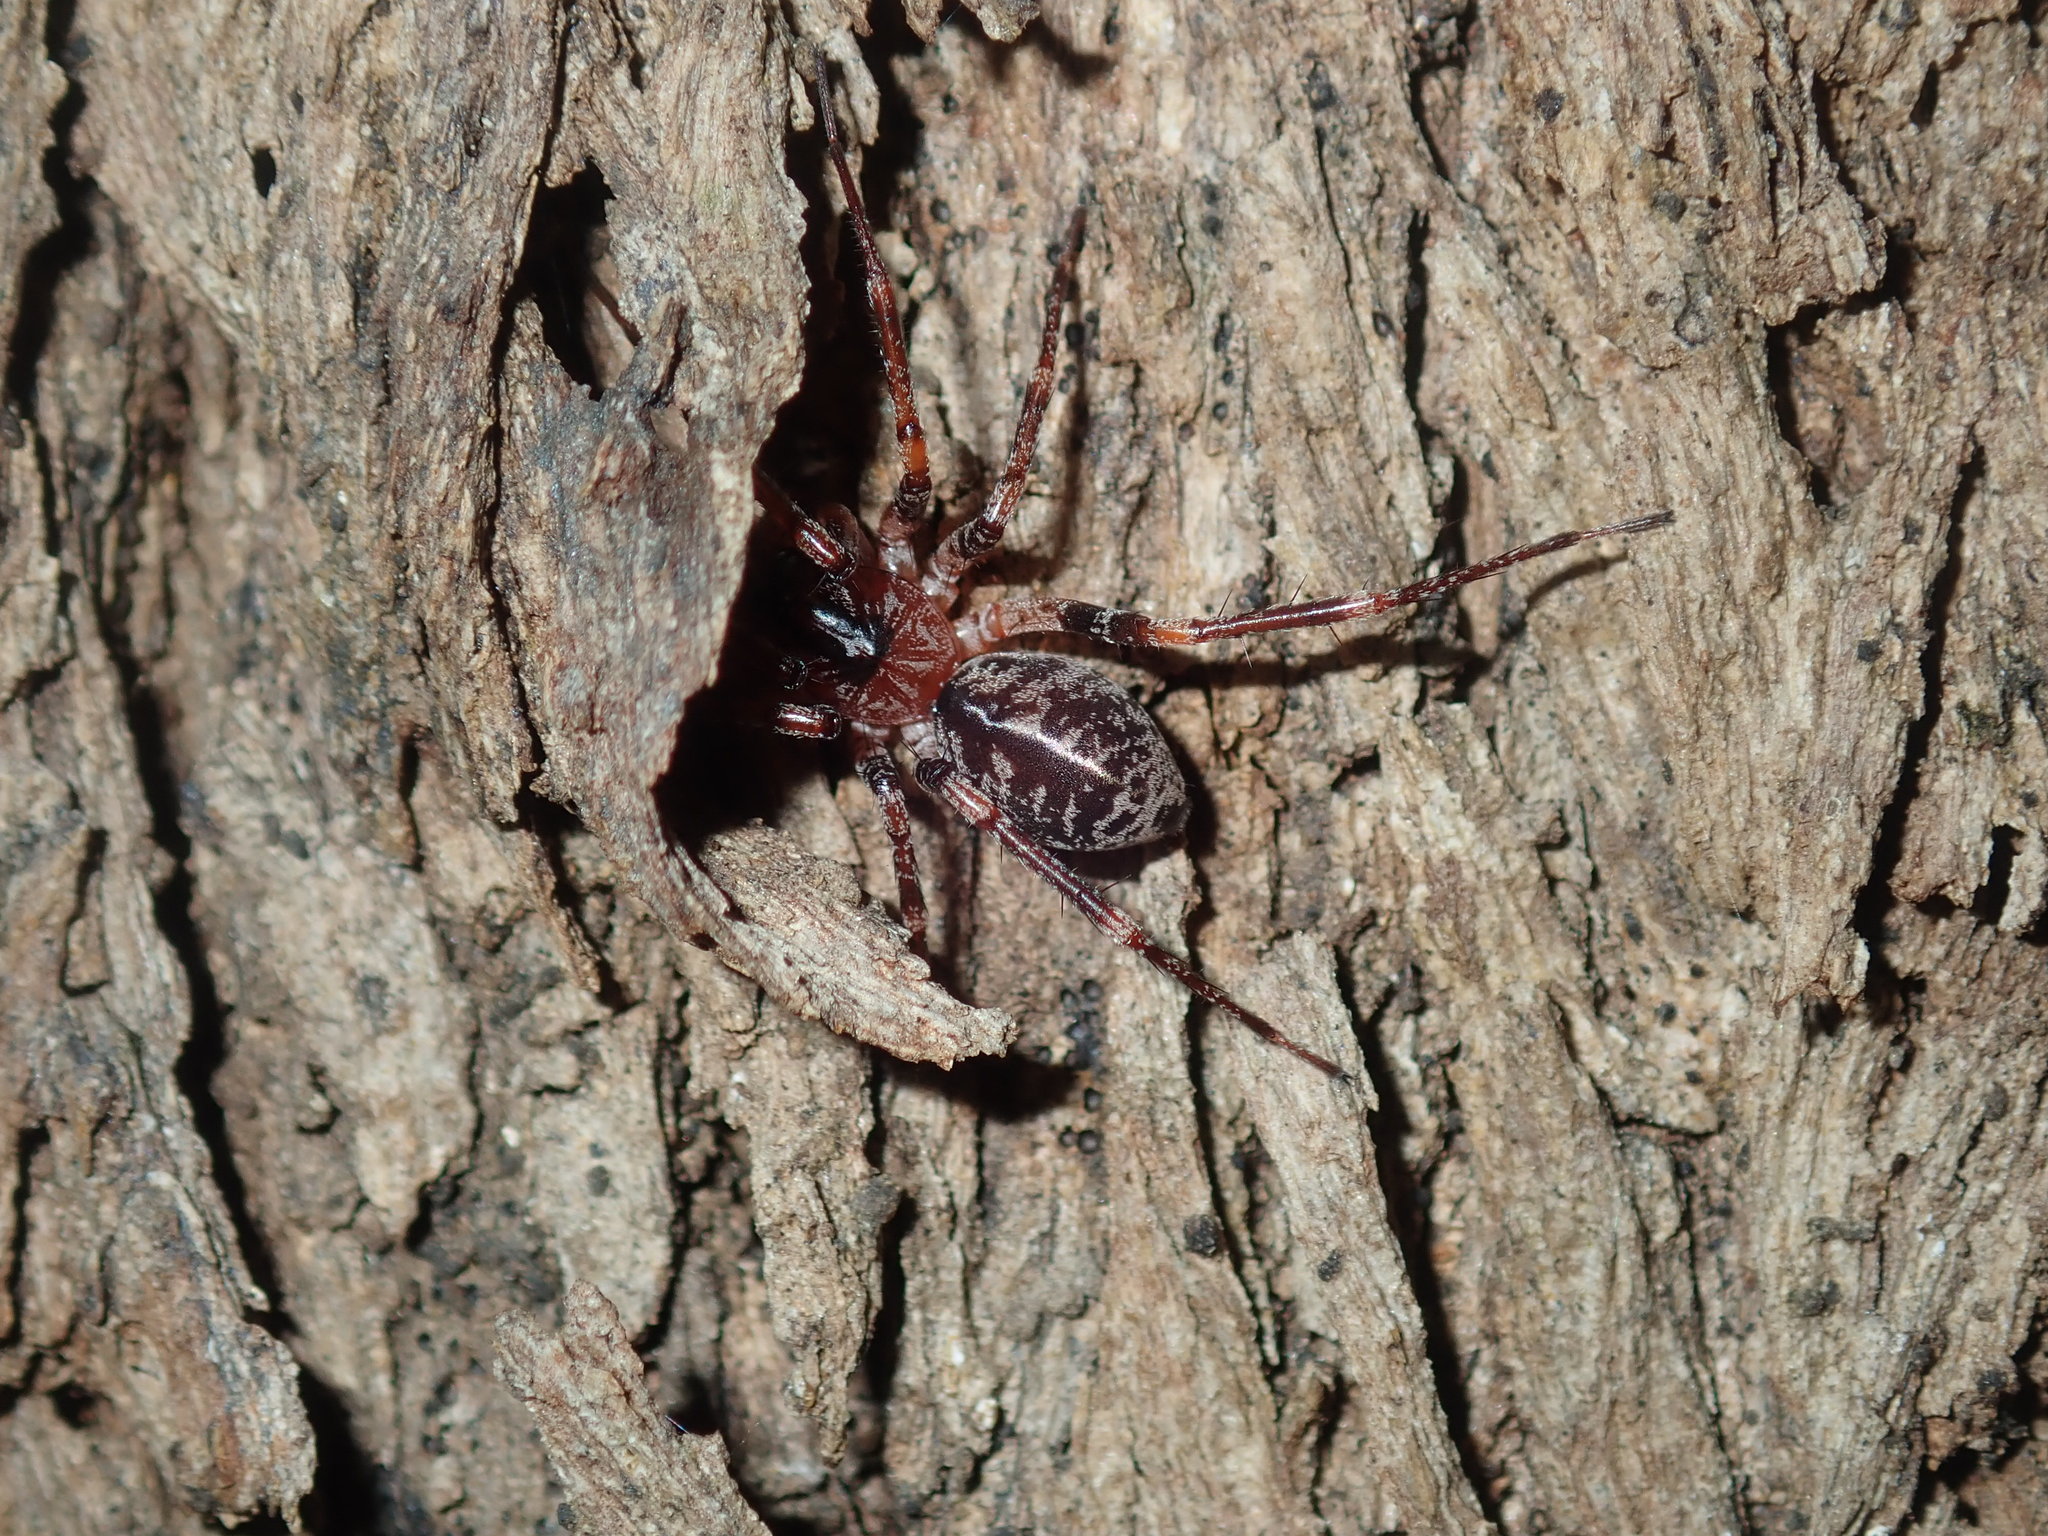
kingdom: Animalia
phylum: Arthropoda
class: Arachnida
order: Araneae
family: Corinnidae
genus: Battalus
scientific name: Battalus adamparsonsi
